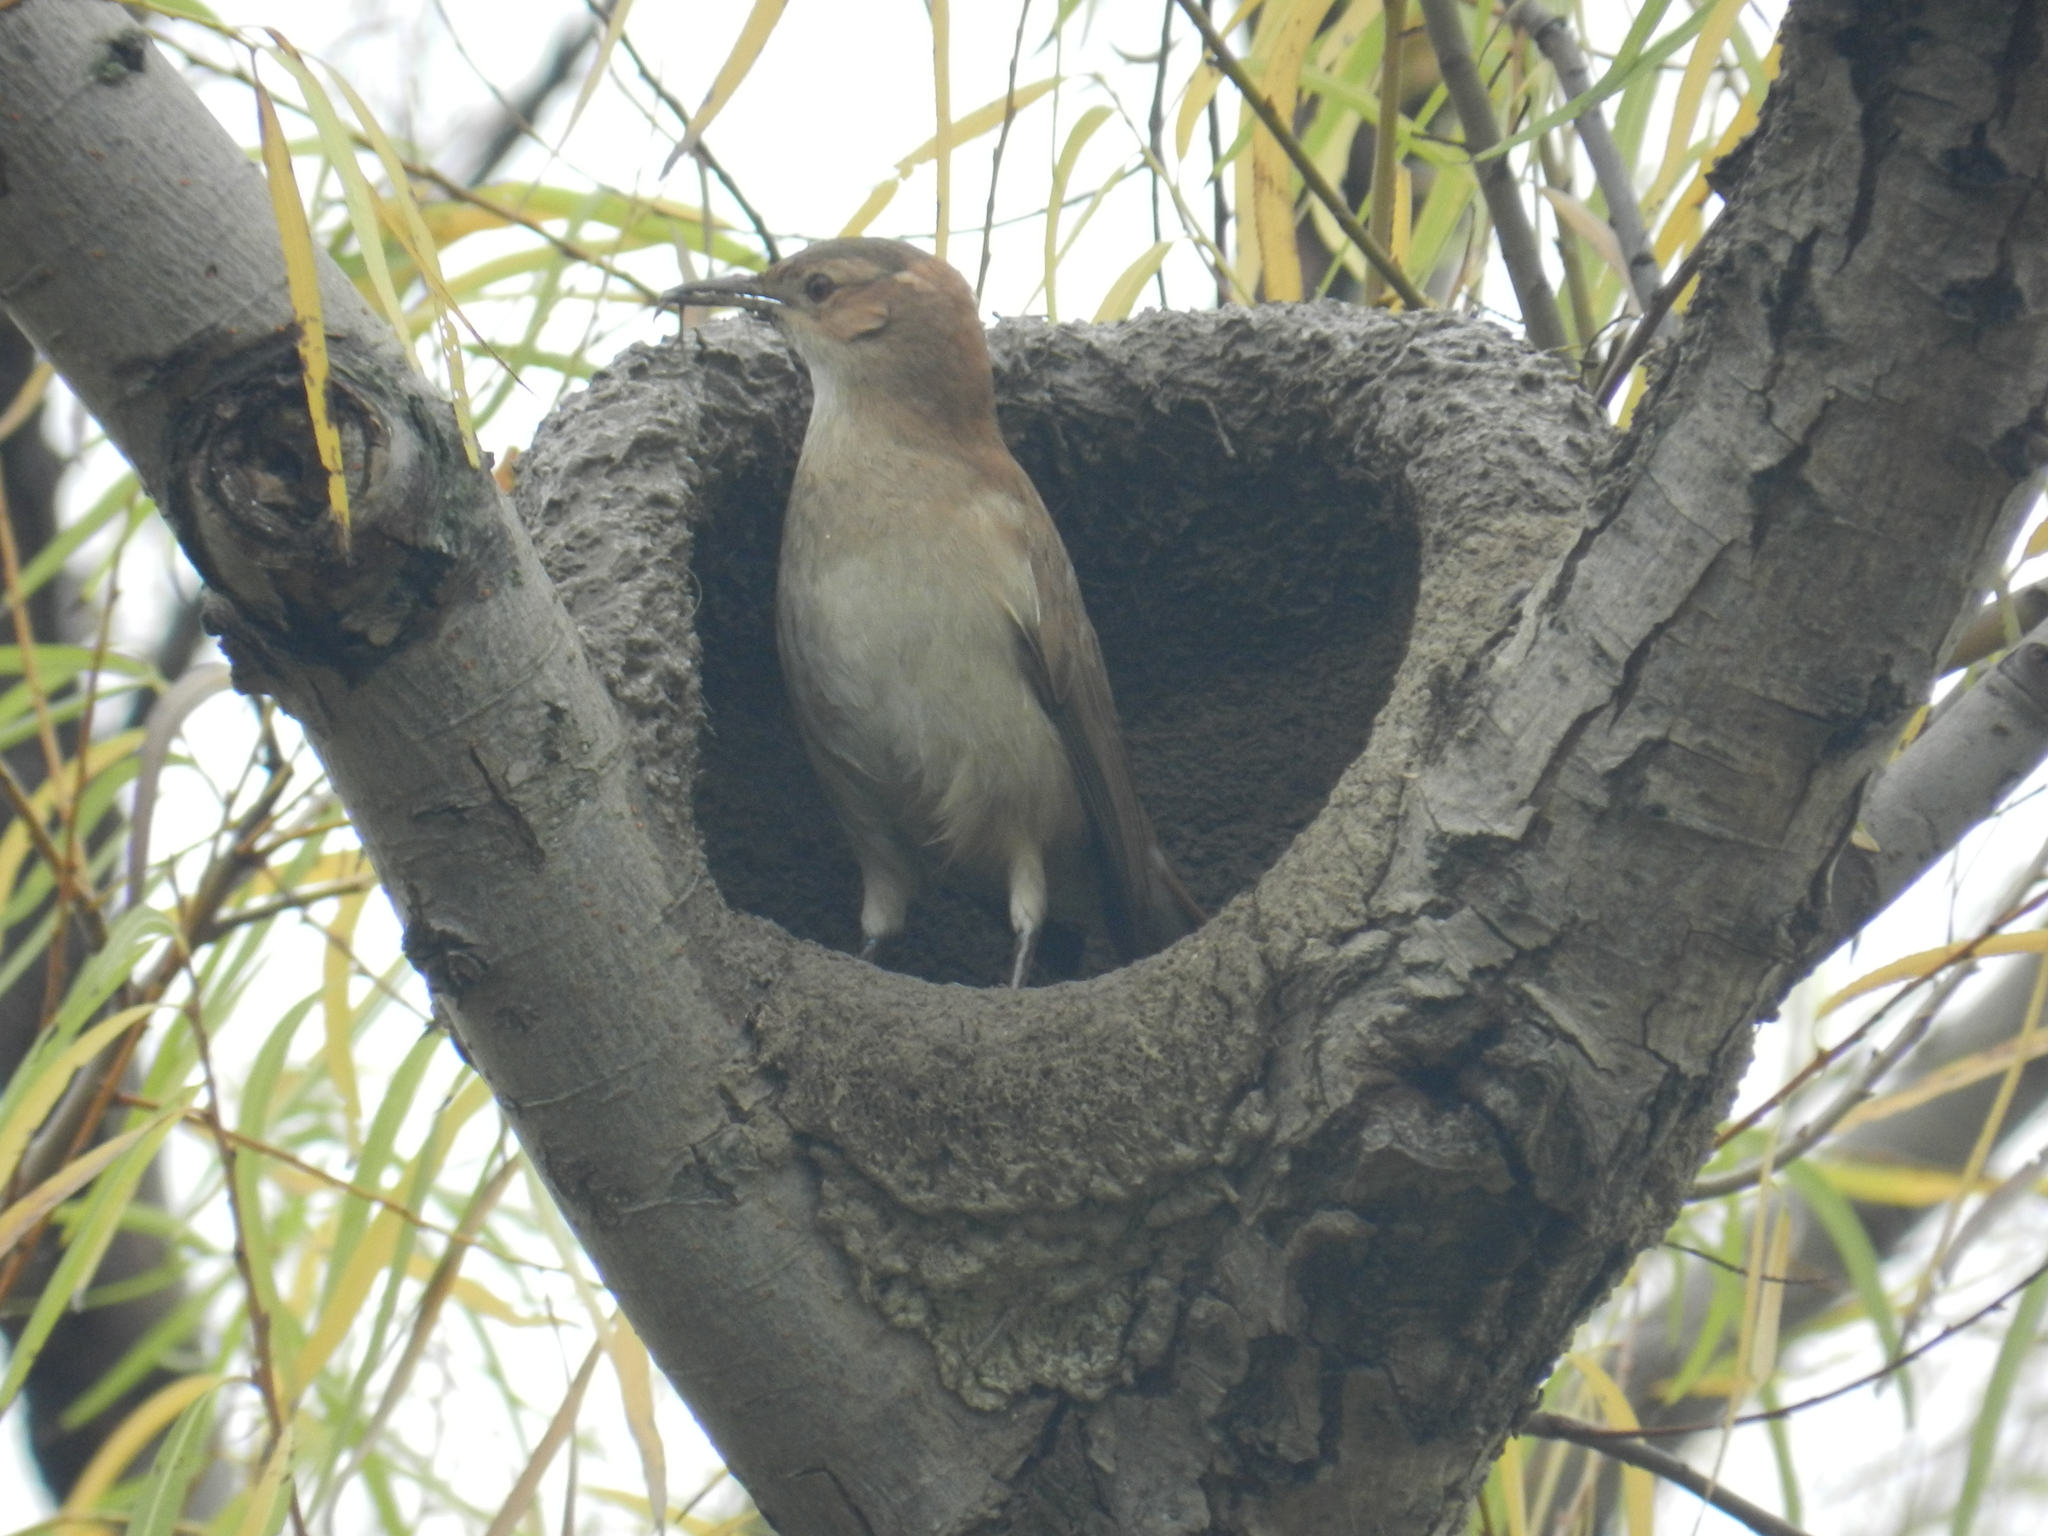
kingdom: Animalia
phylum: Chordata
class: Aves
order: Passeriformes
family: Furnariidae
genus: Furnarius
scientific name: Furnarius rufus
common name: Rufous hornero
